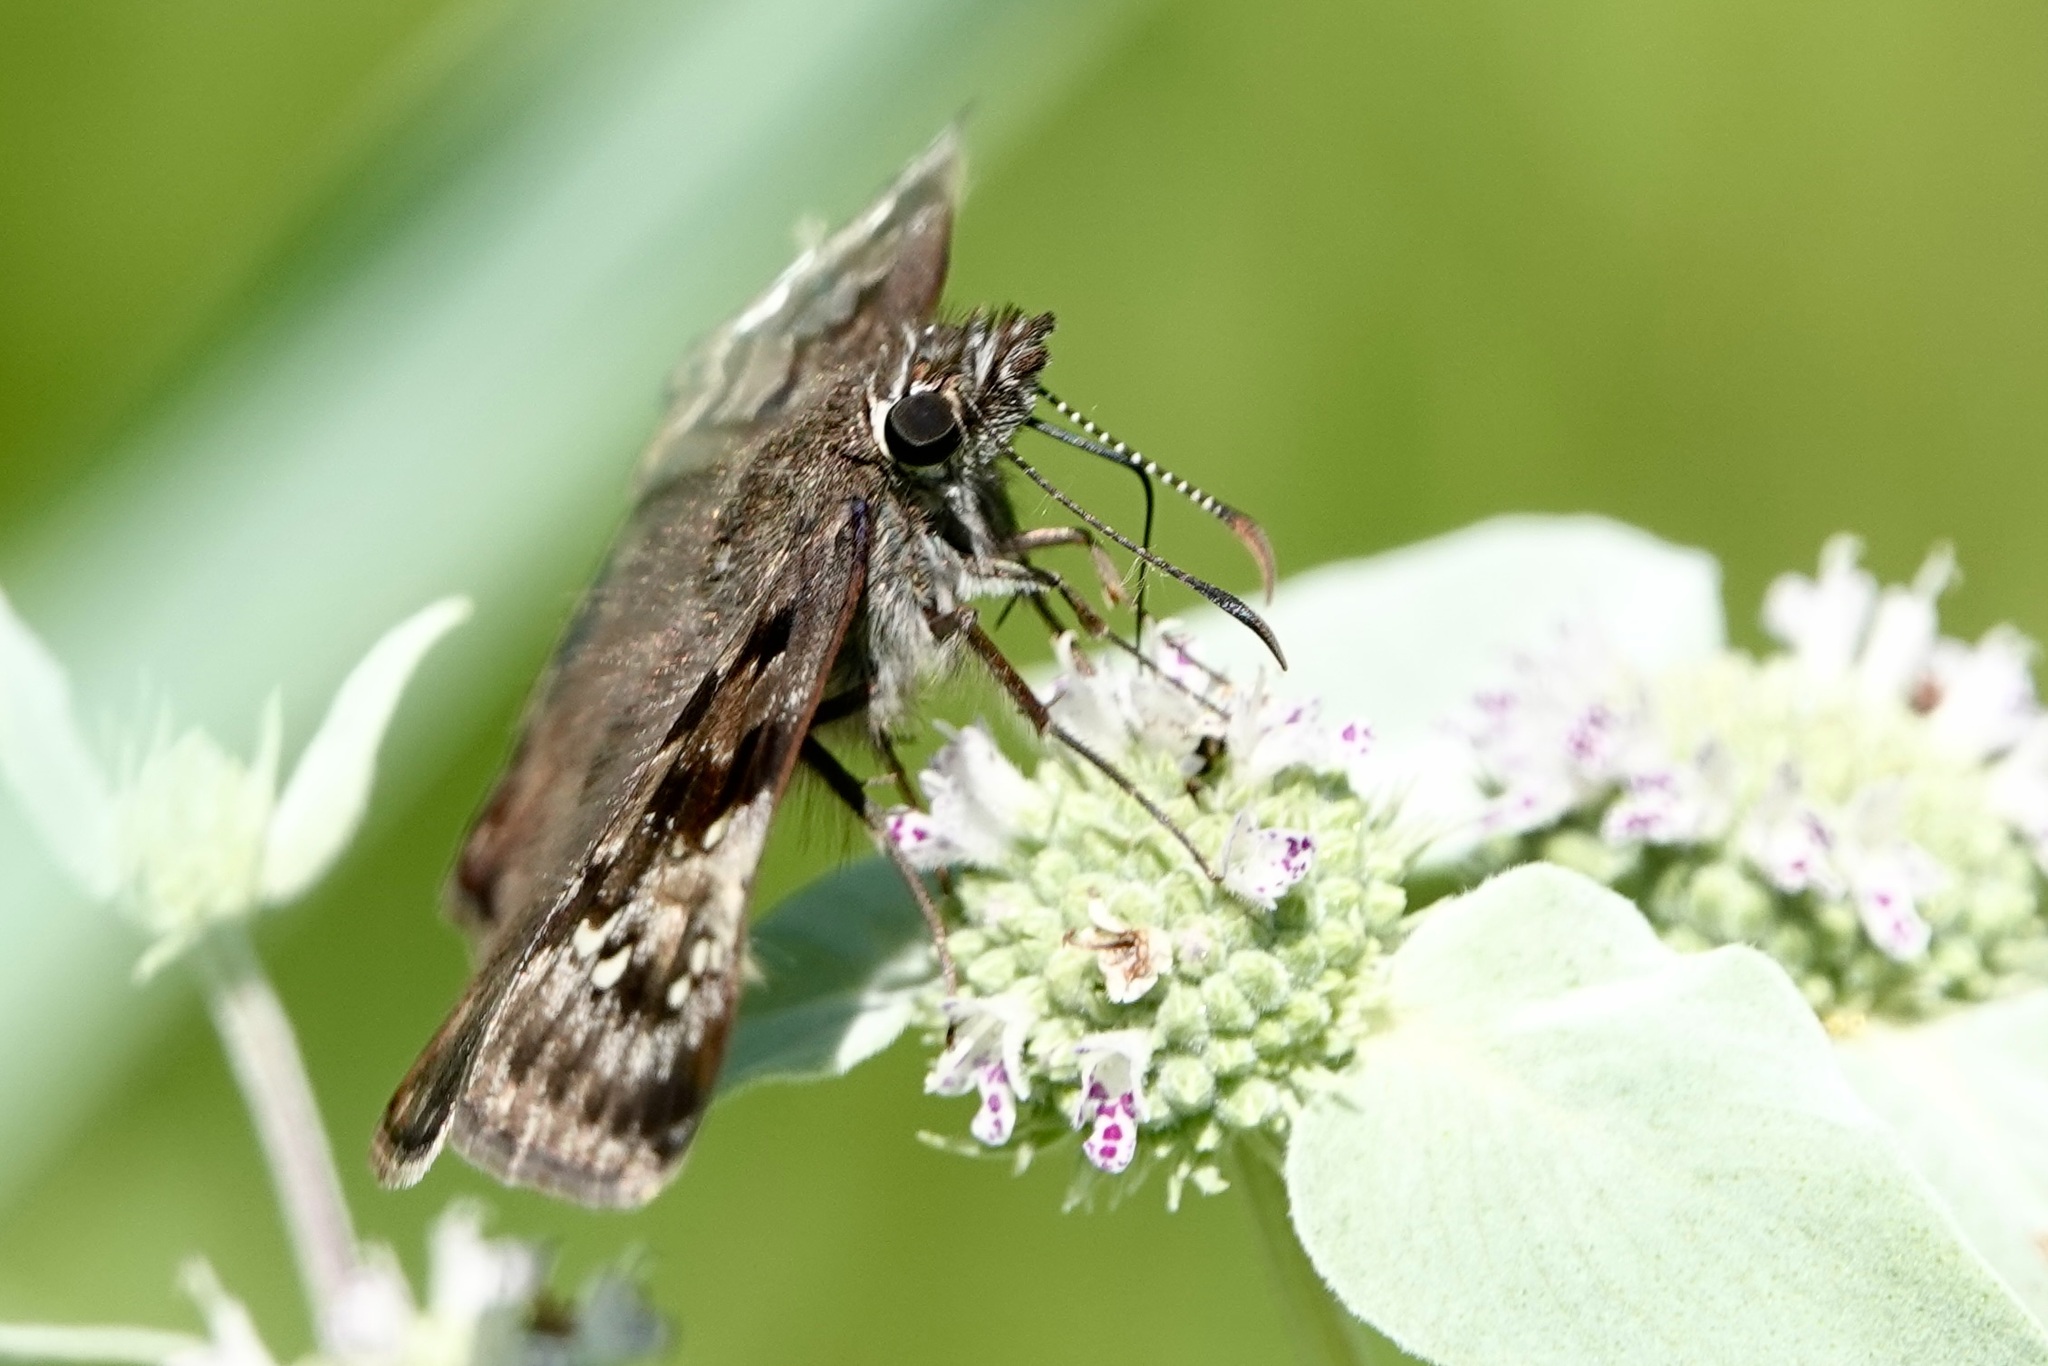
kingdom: Animalia
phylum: Arthropoda
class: Insecta
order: Lepidoptera
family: Hesperiidae
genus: Erynnis
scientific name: Erynnis horatius
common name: Horace's duskywing
